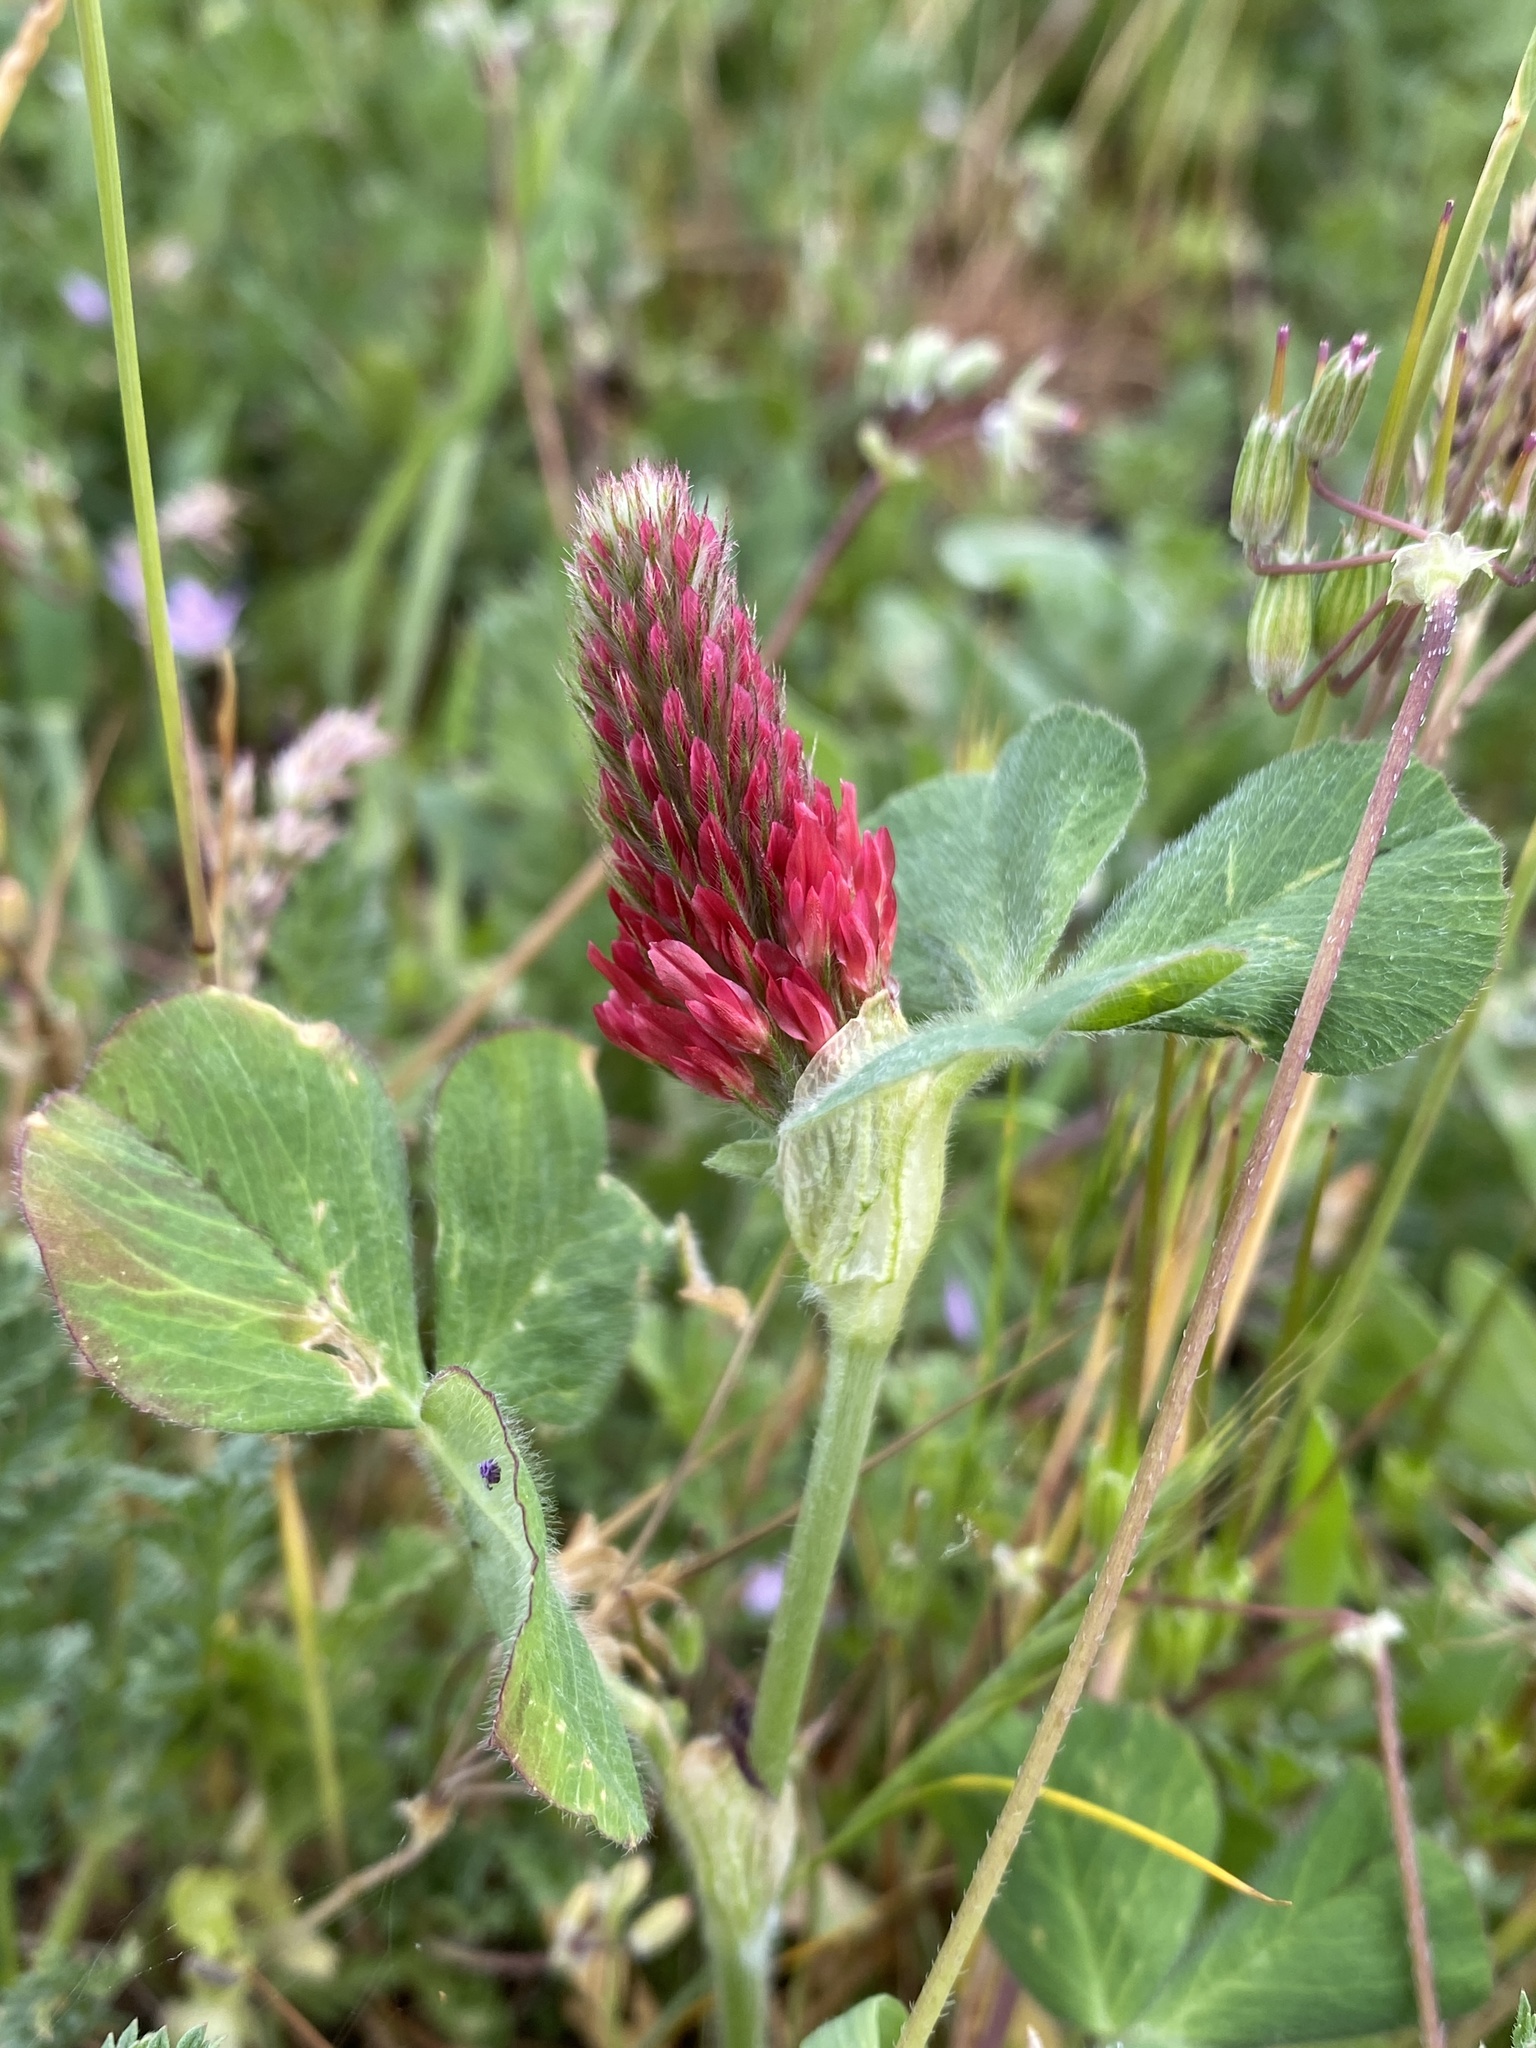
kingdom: Plantae
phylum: Tracheophyta
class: Magnoliopsida
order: Fabales
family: Fabaceae
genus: Trifolium
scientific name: Trifolium incarnatum
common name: Crimson clover
